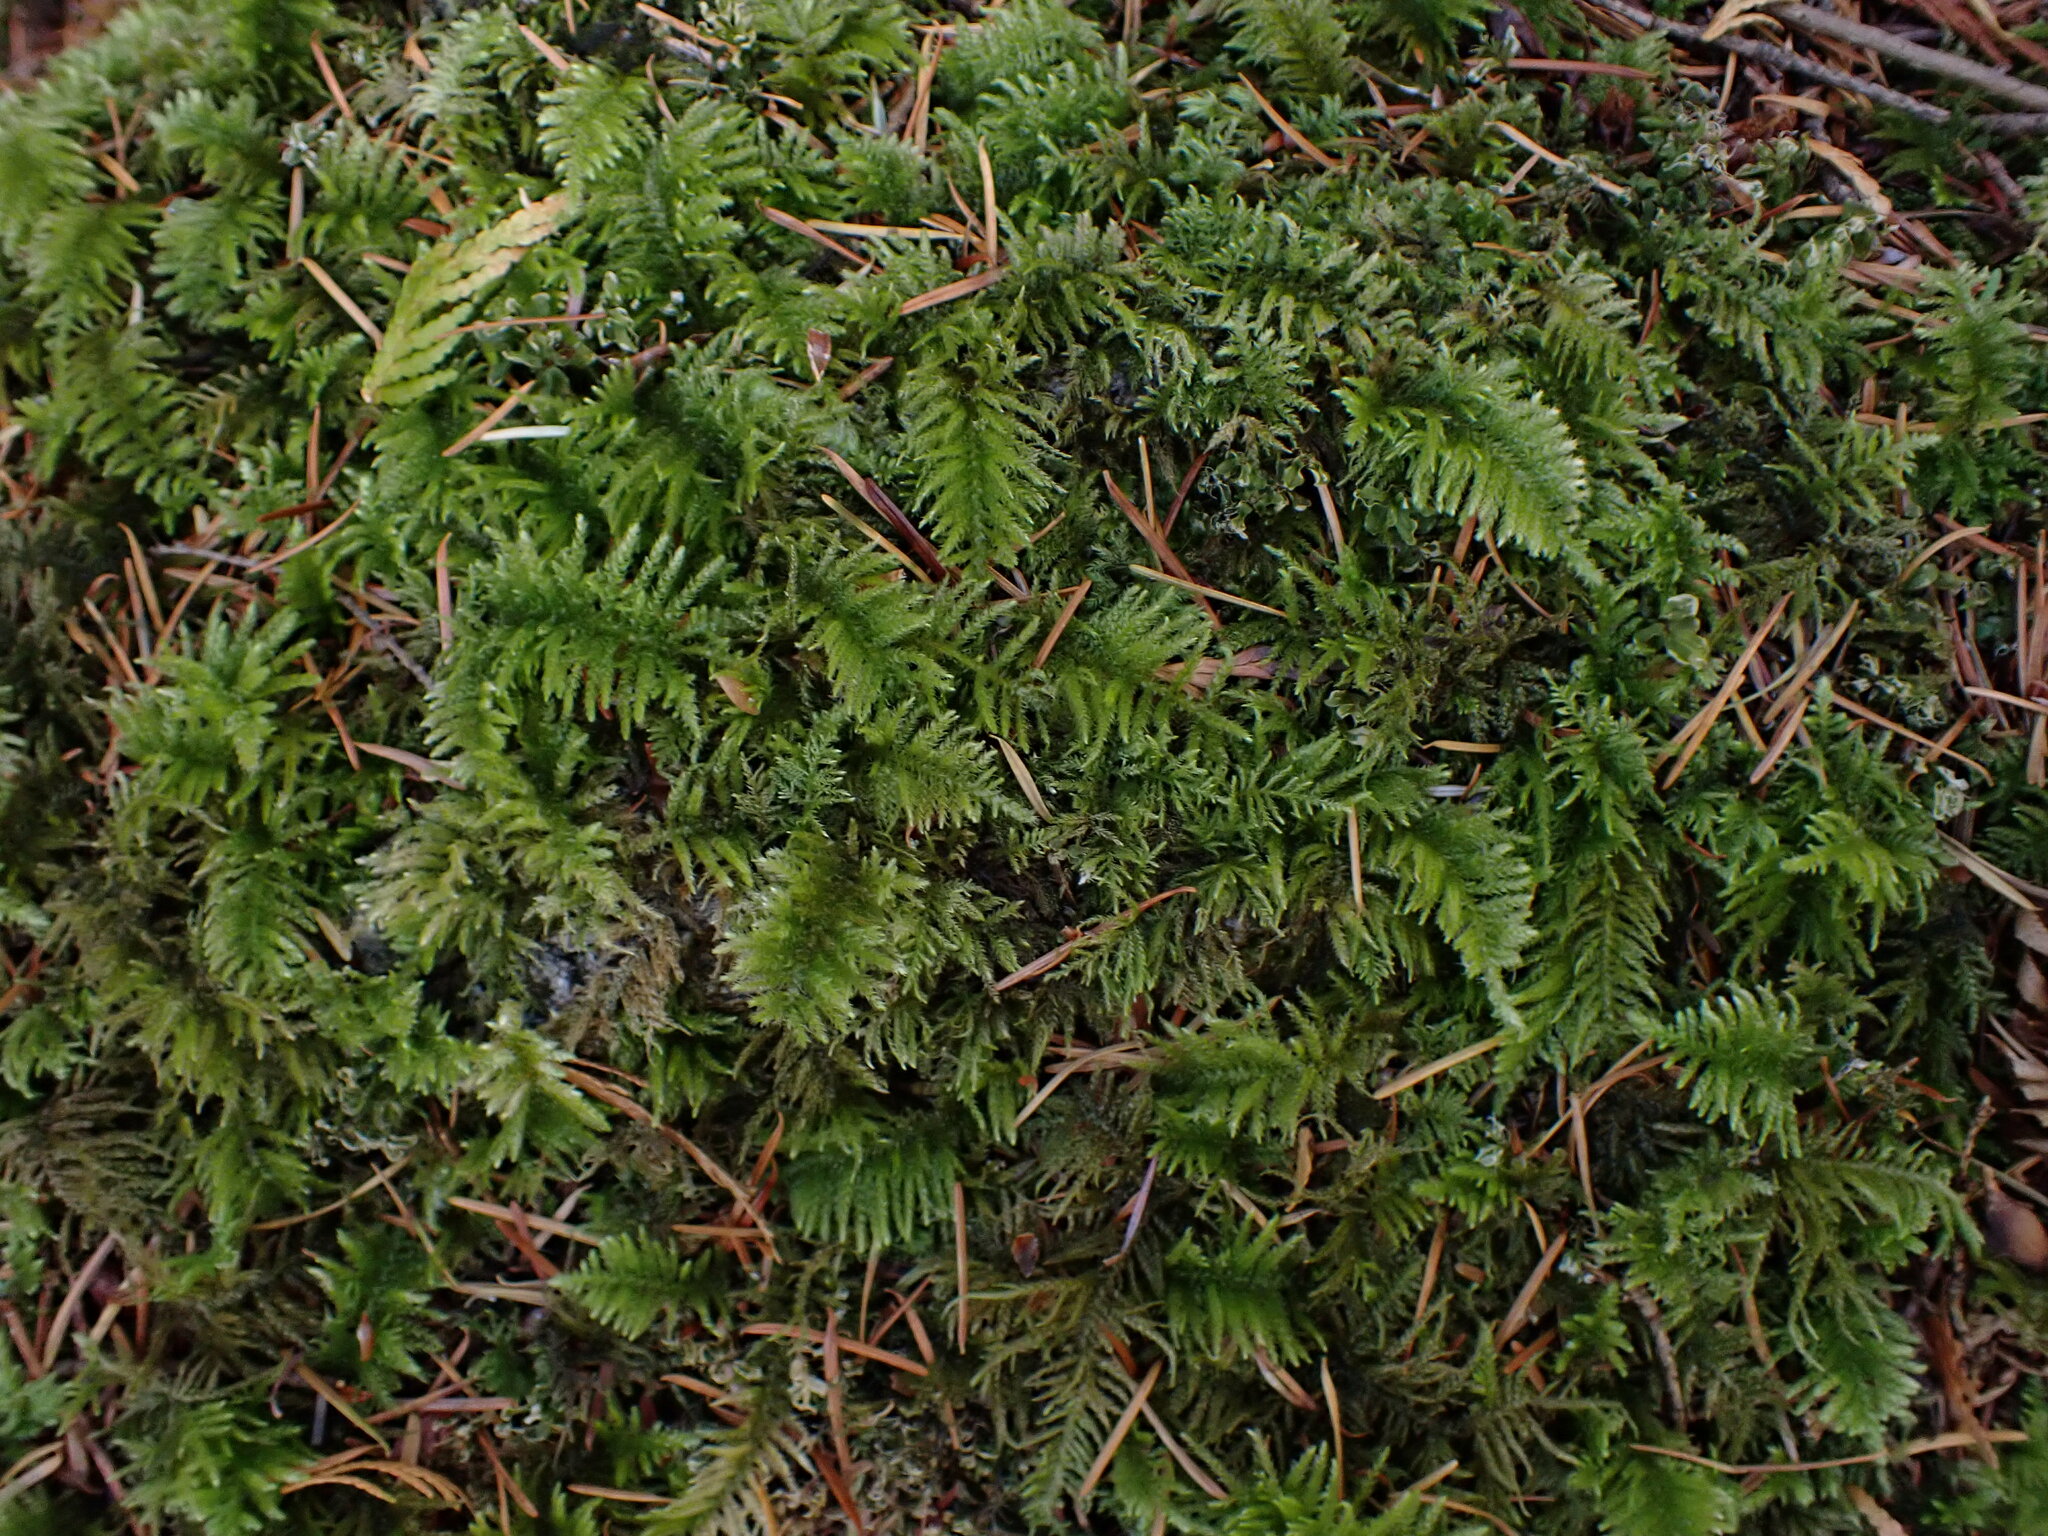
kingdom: Plantae
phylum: Bryophyta
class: Bryopsida
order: Hypnales
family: Brachytheciaceae
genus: Kindbergia
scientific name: Kindbergia oregana
